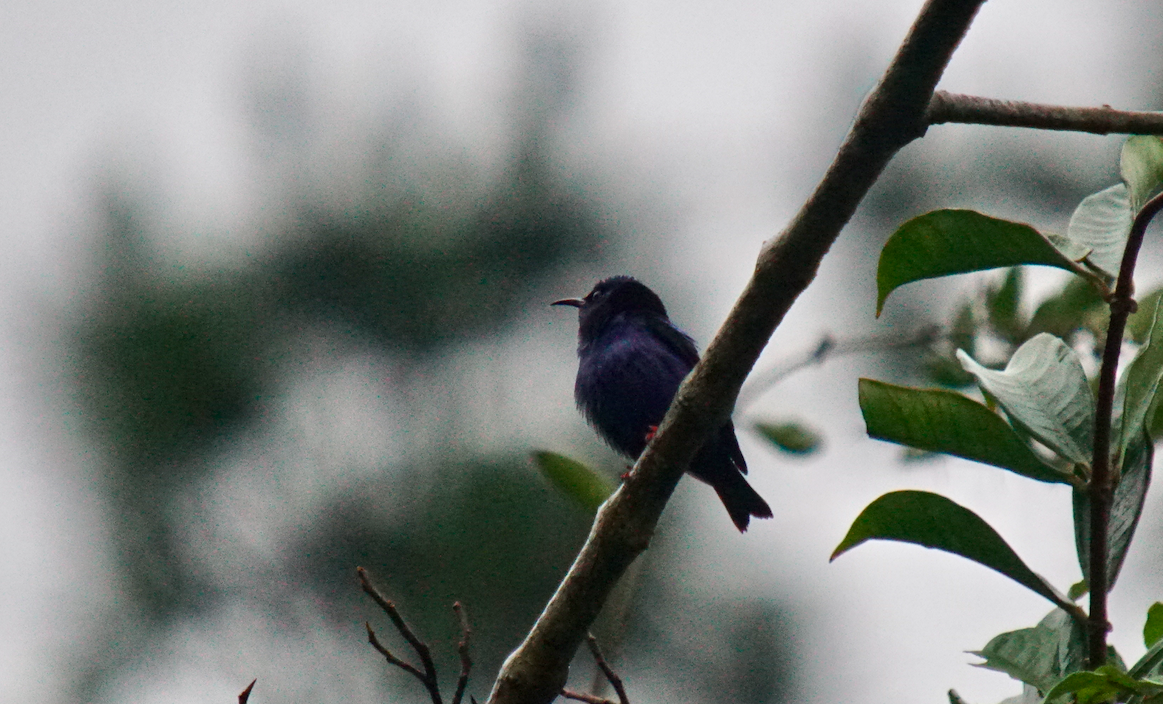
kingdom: Animalia
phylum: Chordata
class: Aves
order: Passeriformes
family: Thraupidae
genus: Cyanerpes
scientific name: Cyanerpes cyaneus
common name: Red-legged honeycreeper
